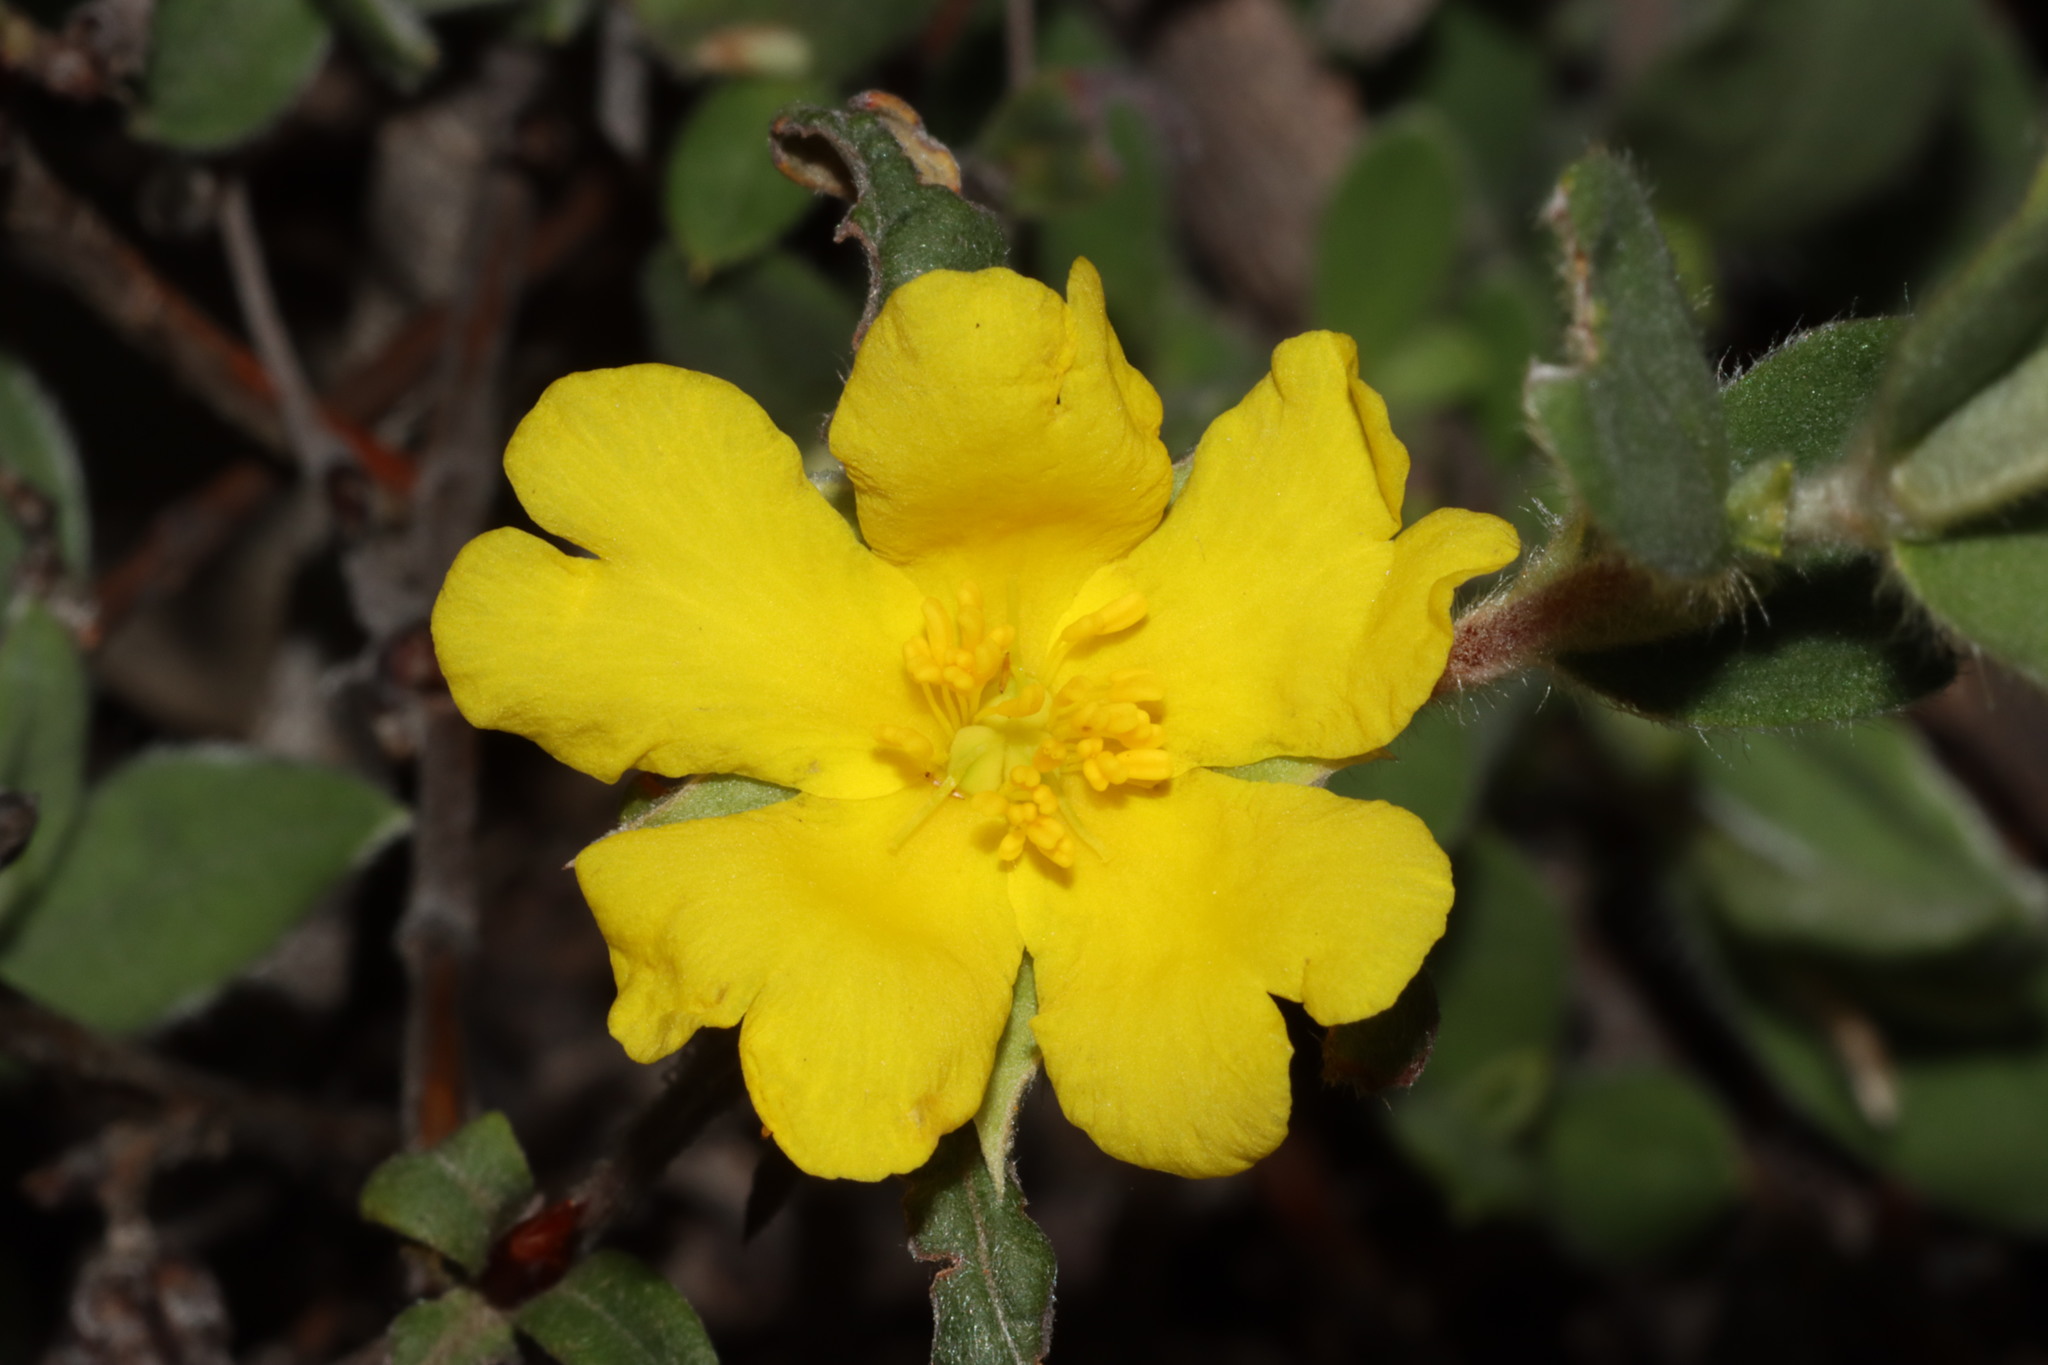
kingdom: Plantae
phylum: Tracheophyta
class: Magnoliopsida
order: Dilleniales
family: Dilleniaceae
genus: Hibbertia
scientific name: Hibbertia commutata
